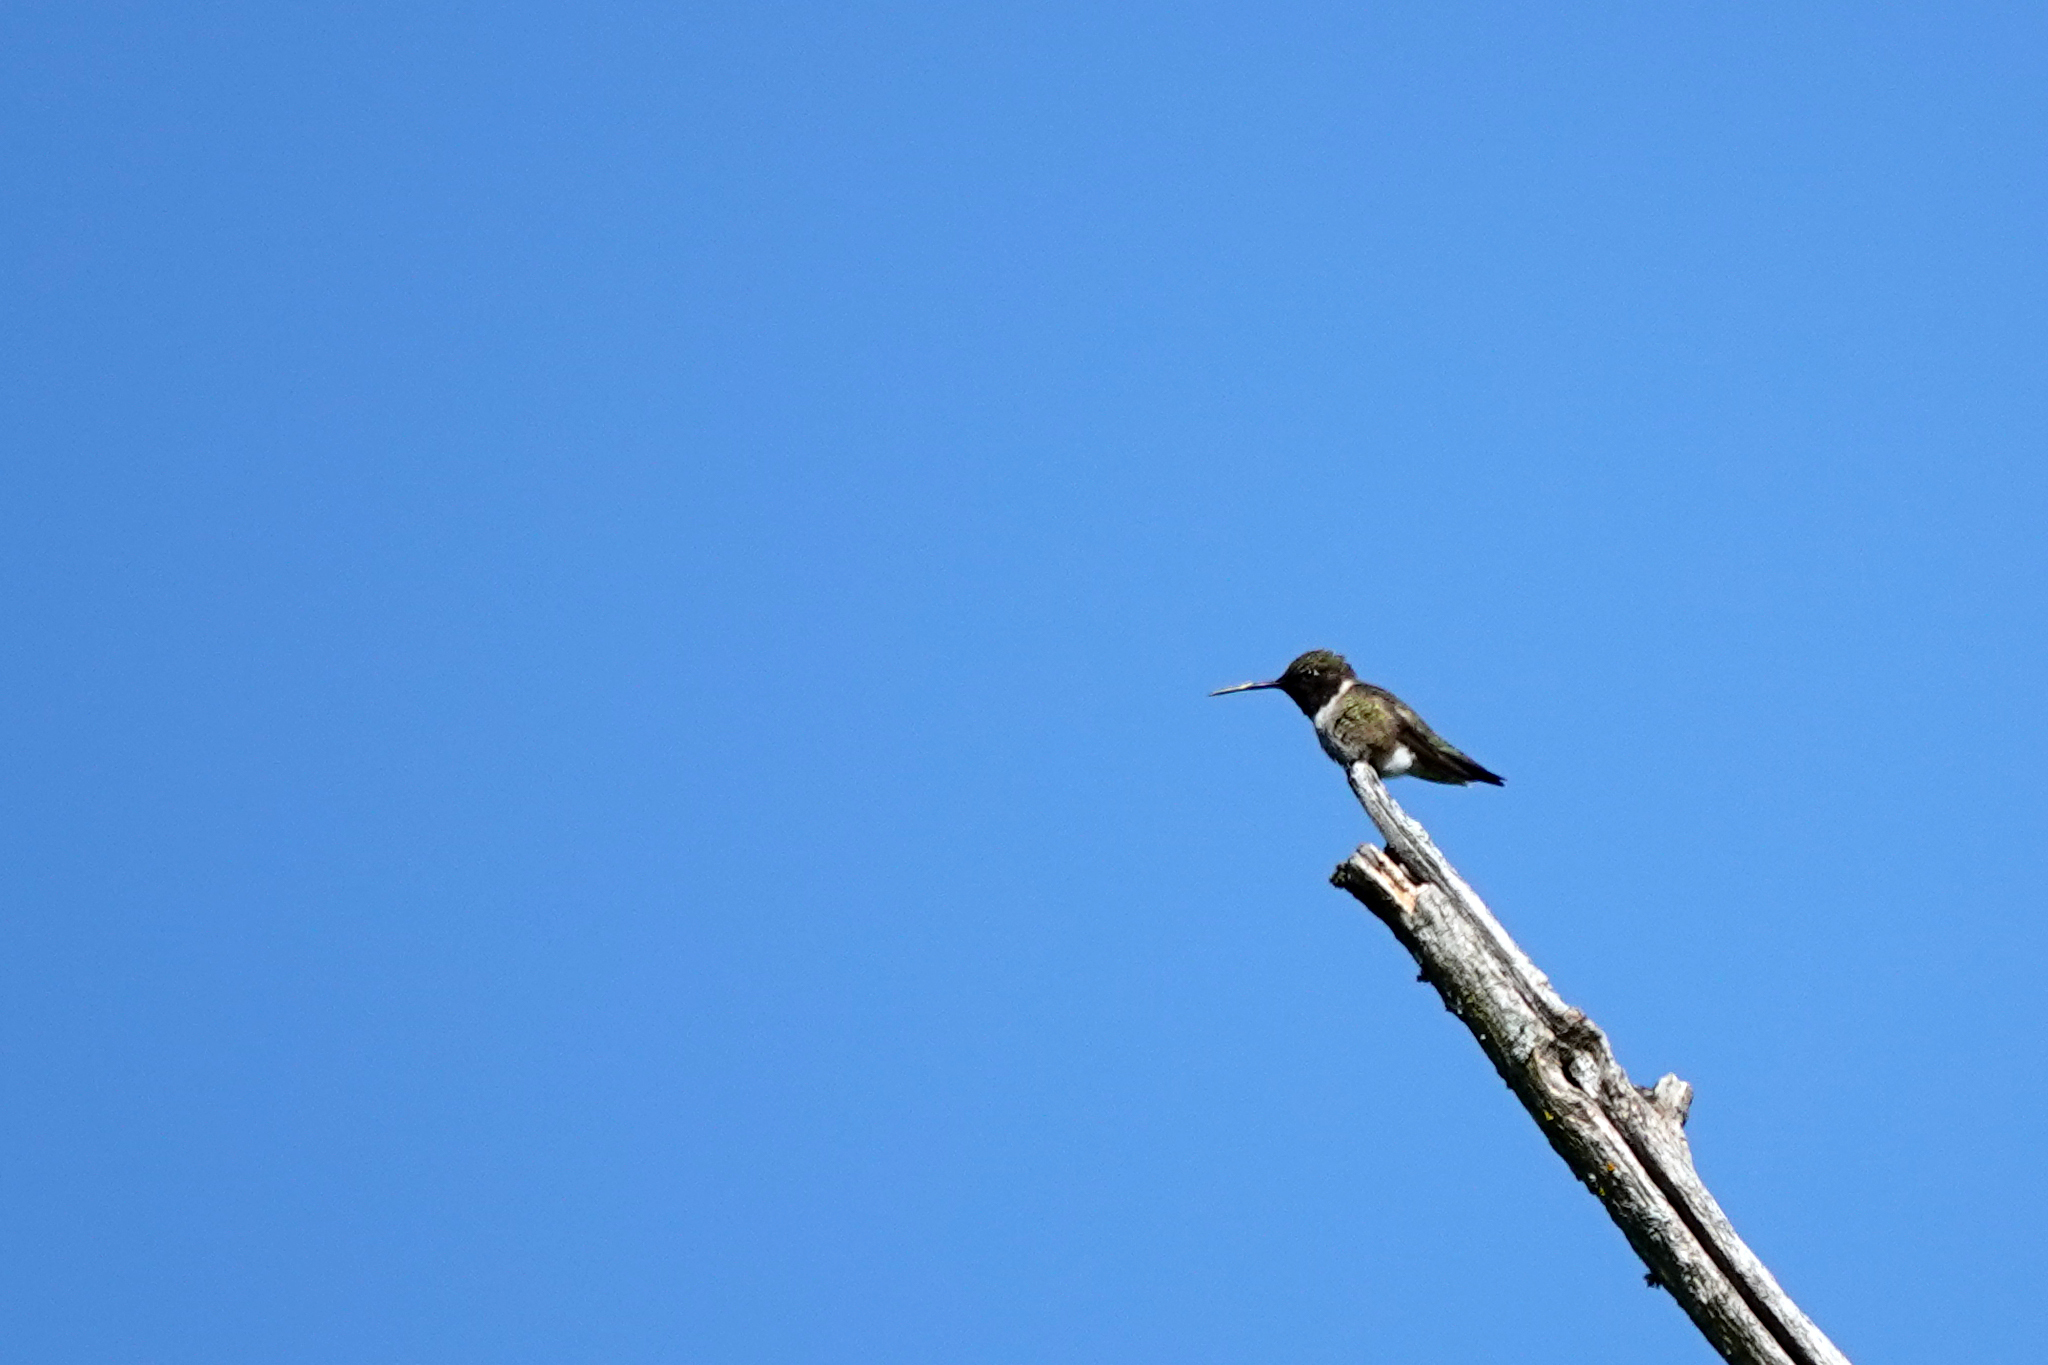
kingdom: Animalia
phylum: Chordata
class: Aves
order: Apodiformes
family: Trochilidae
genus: Archilochus
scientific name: Archilochus alexandri
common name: Black-chinned hummingbird
